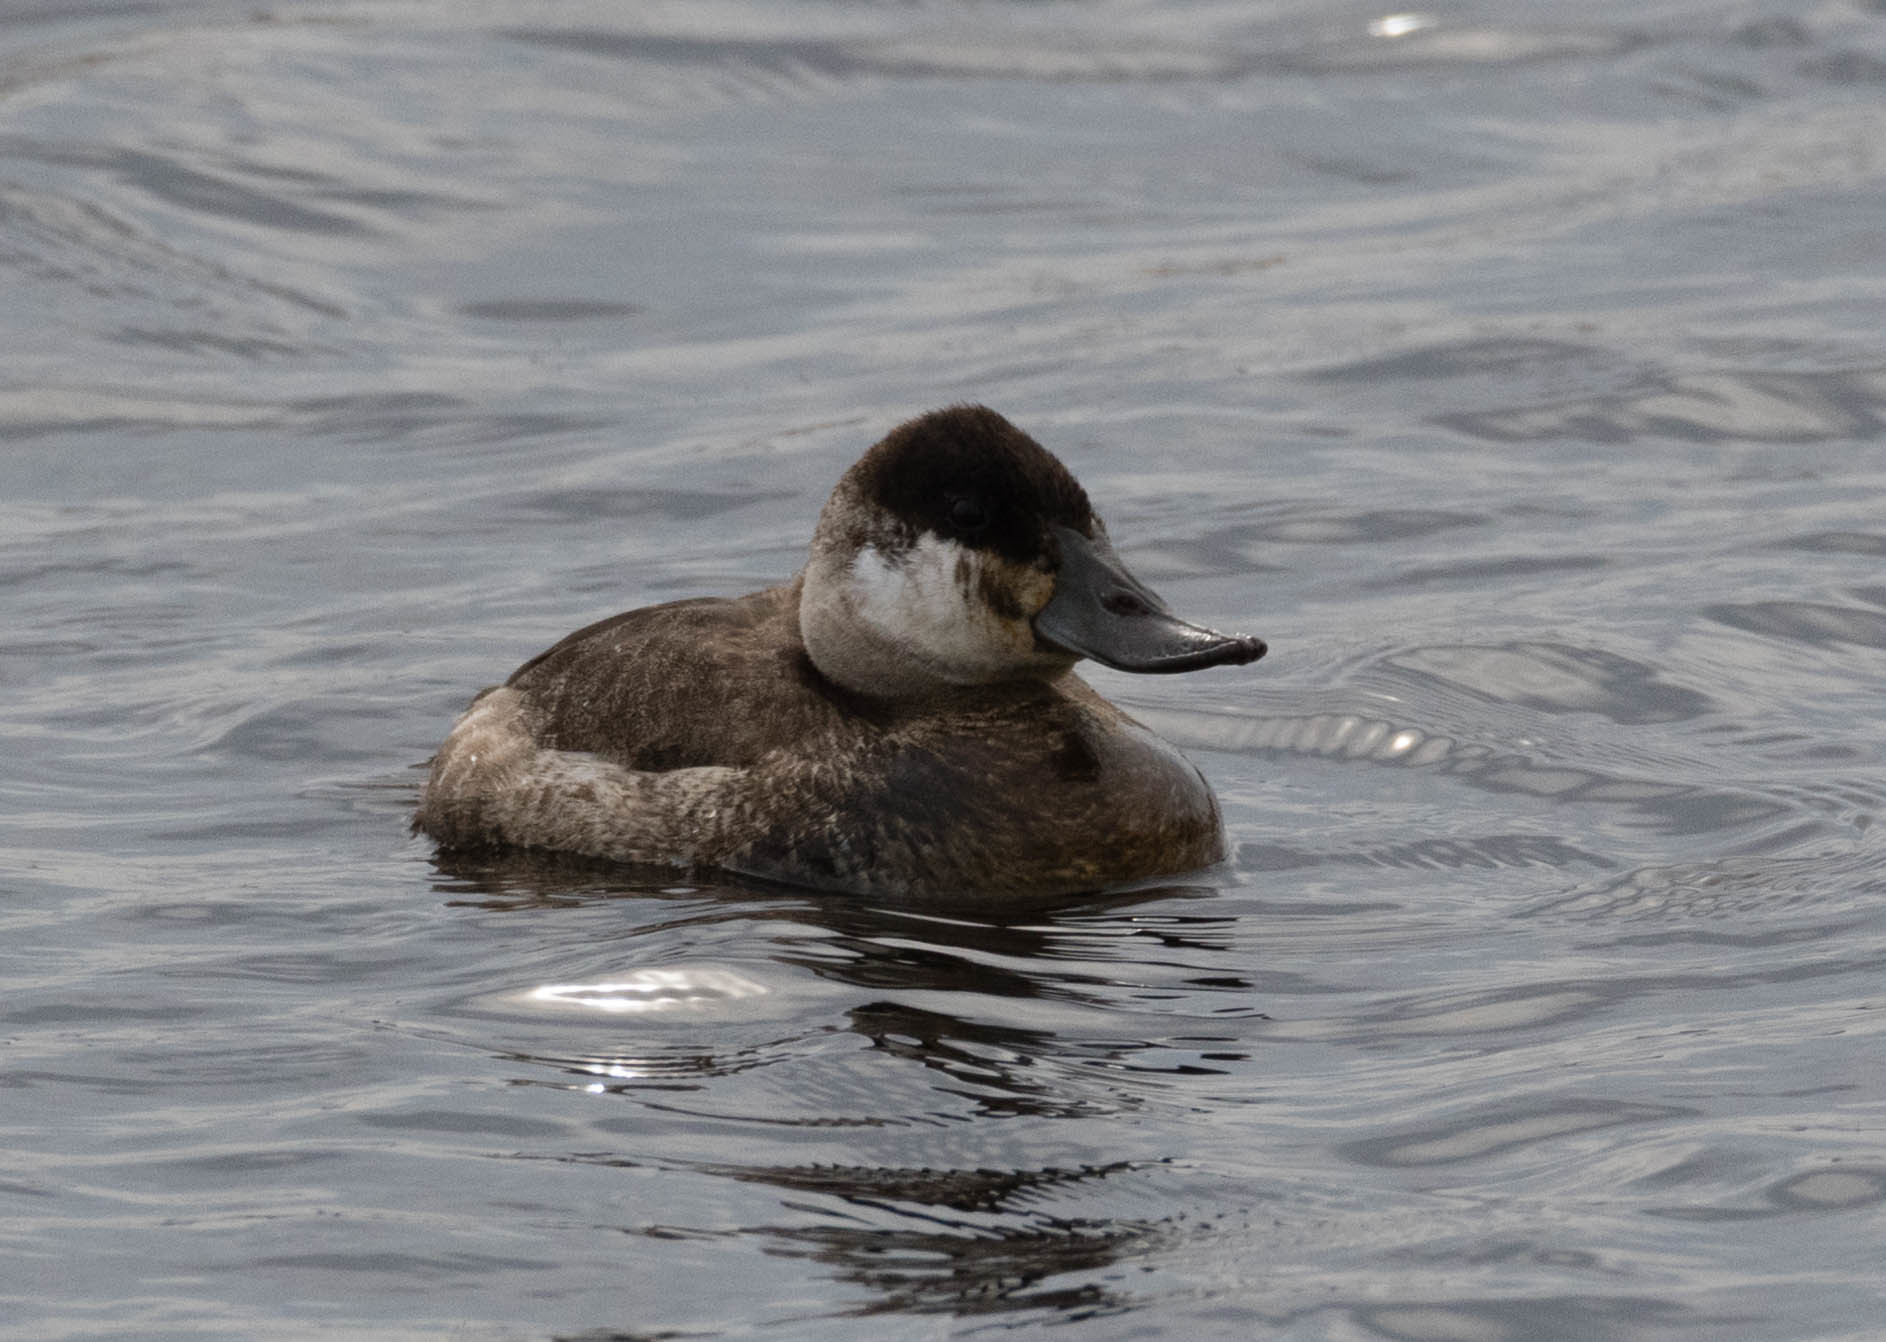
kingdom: Animalia
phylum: Chordata
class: Aves
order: Anseriformes
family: Anatidae
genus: Oxyura
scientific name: Oxyura jamaicensis
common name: Ruddy duck
